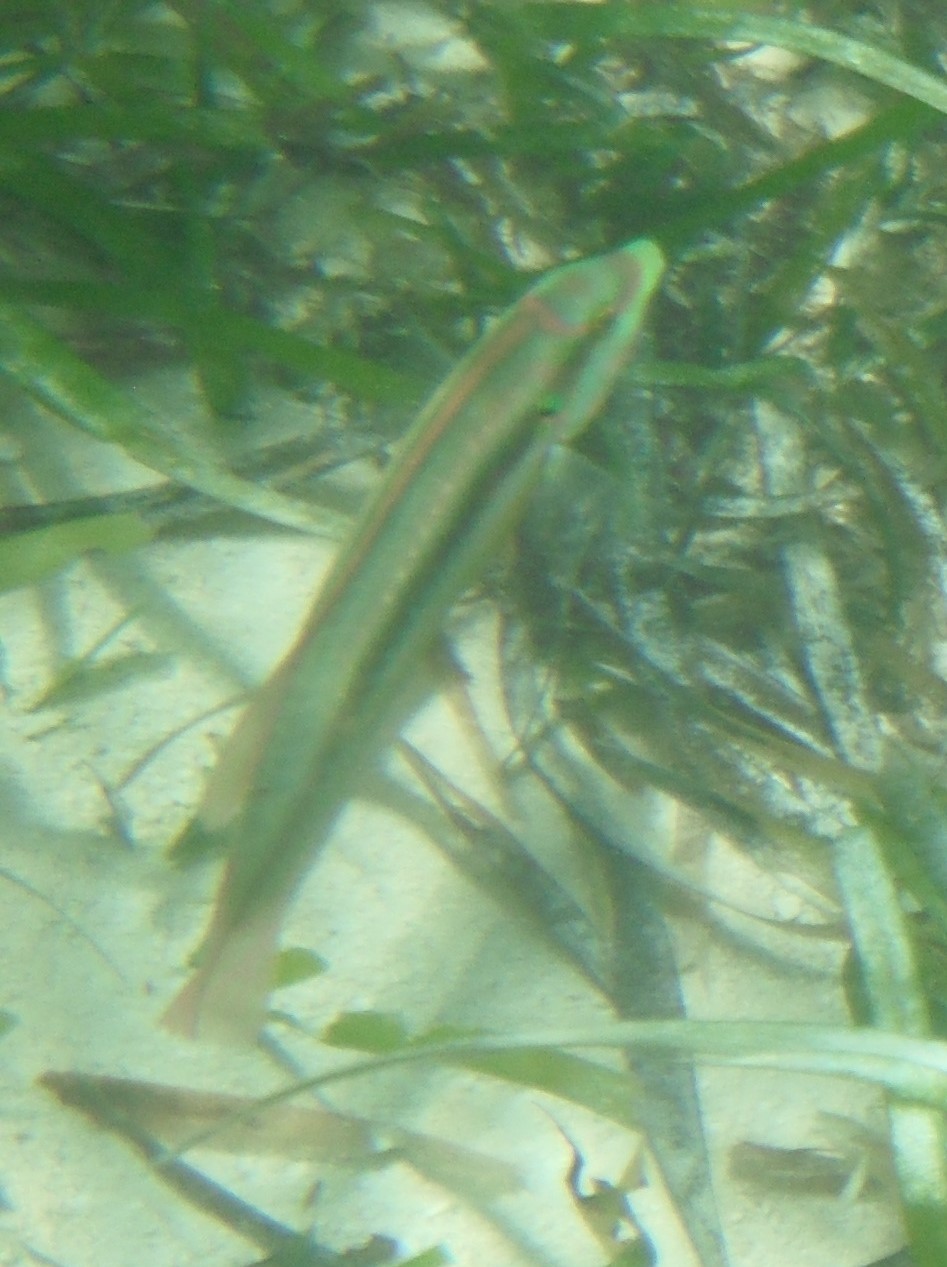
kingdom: Animalia
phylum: Chordata
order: Perciformes
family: Labridae
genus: Halichoeres
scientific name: Halichoeres bivittatus
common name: Slippery dick
